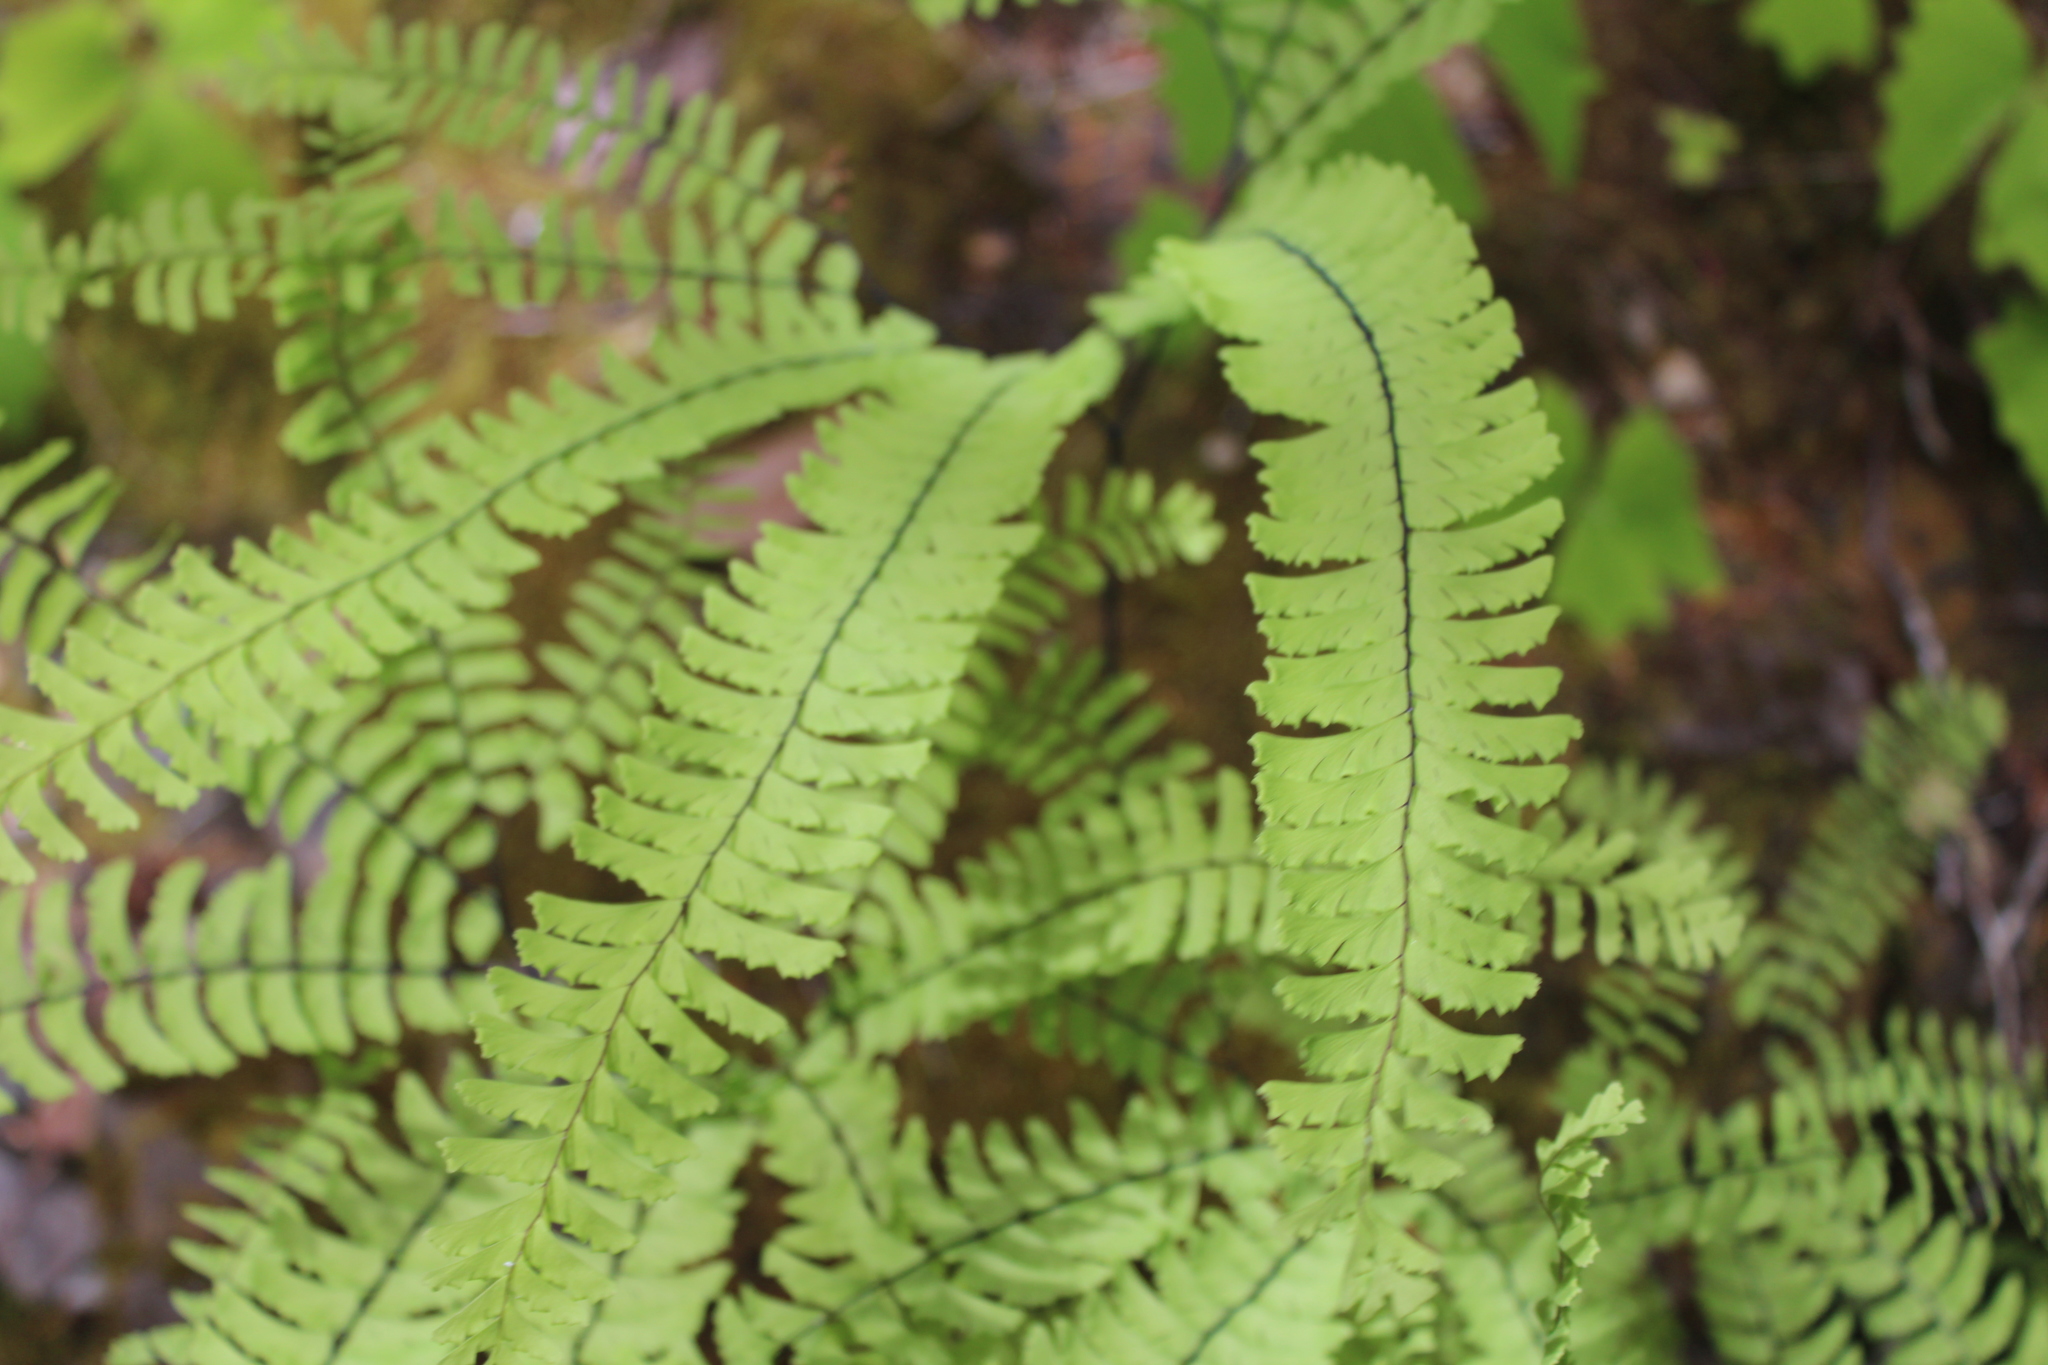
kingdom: Plantae
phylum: Tracheophyta
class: Polypodiopsida
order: Polypodiales
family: Pteridaceae
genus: Adiantum
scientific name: Adiantum aleuticum
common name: Aleutian maidenhair fern
